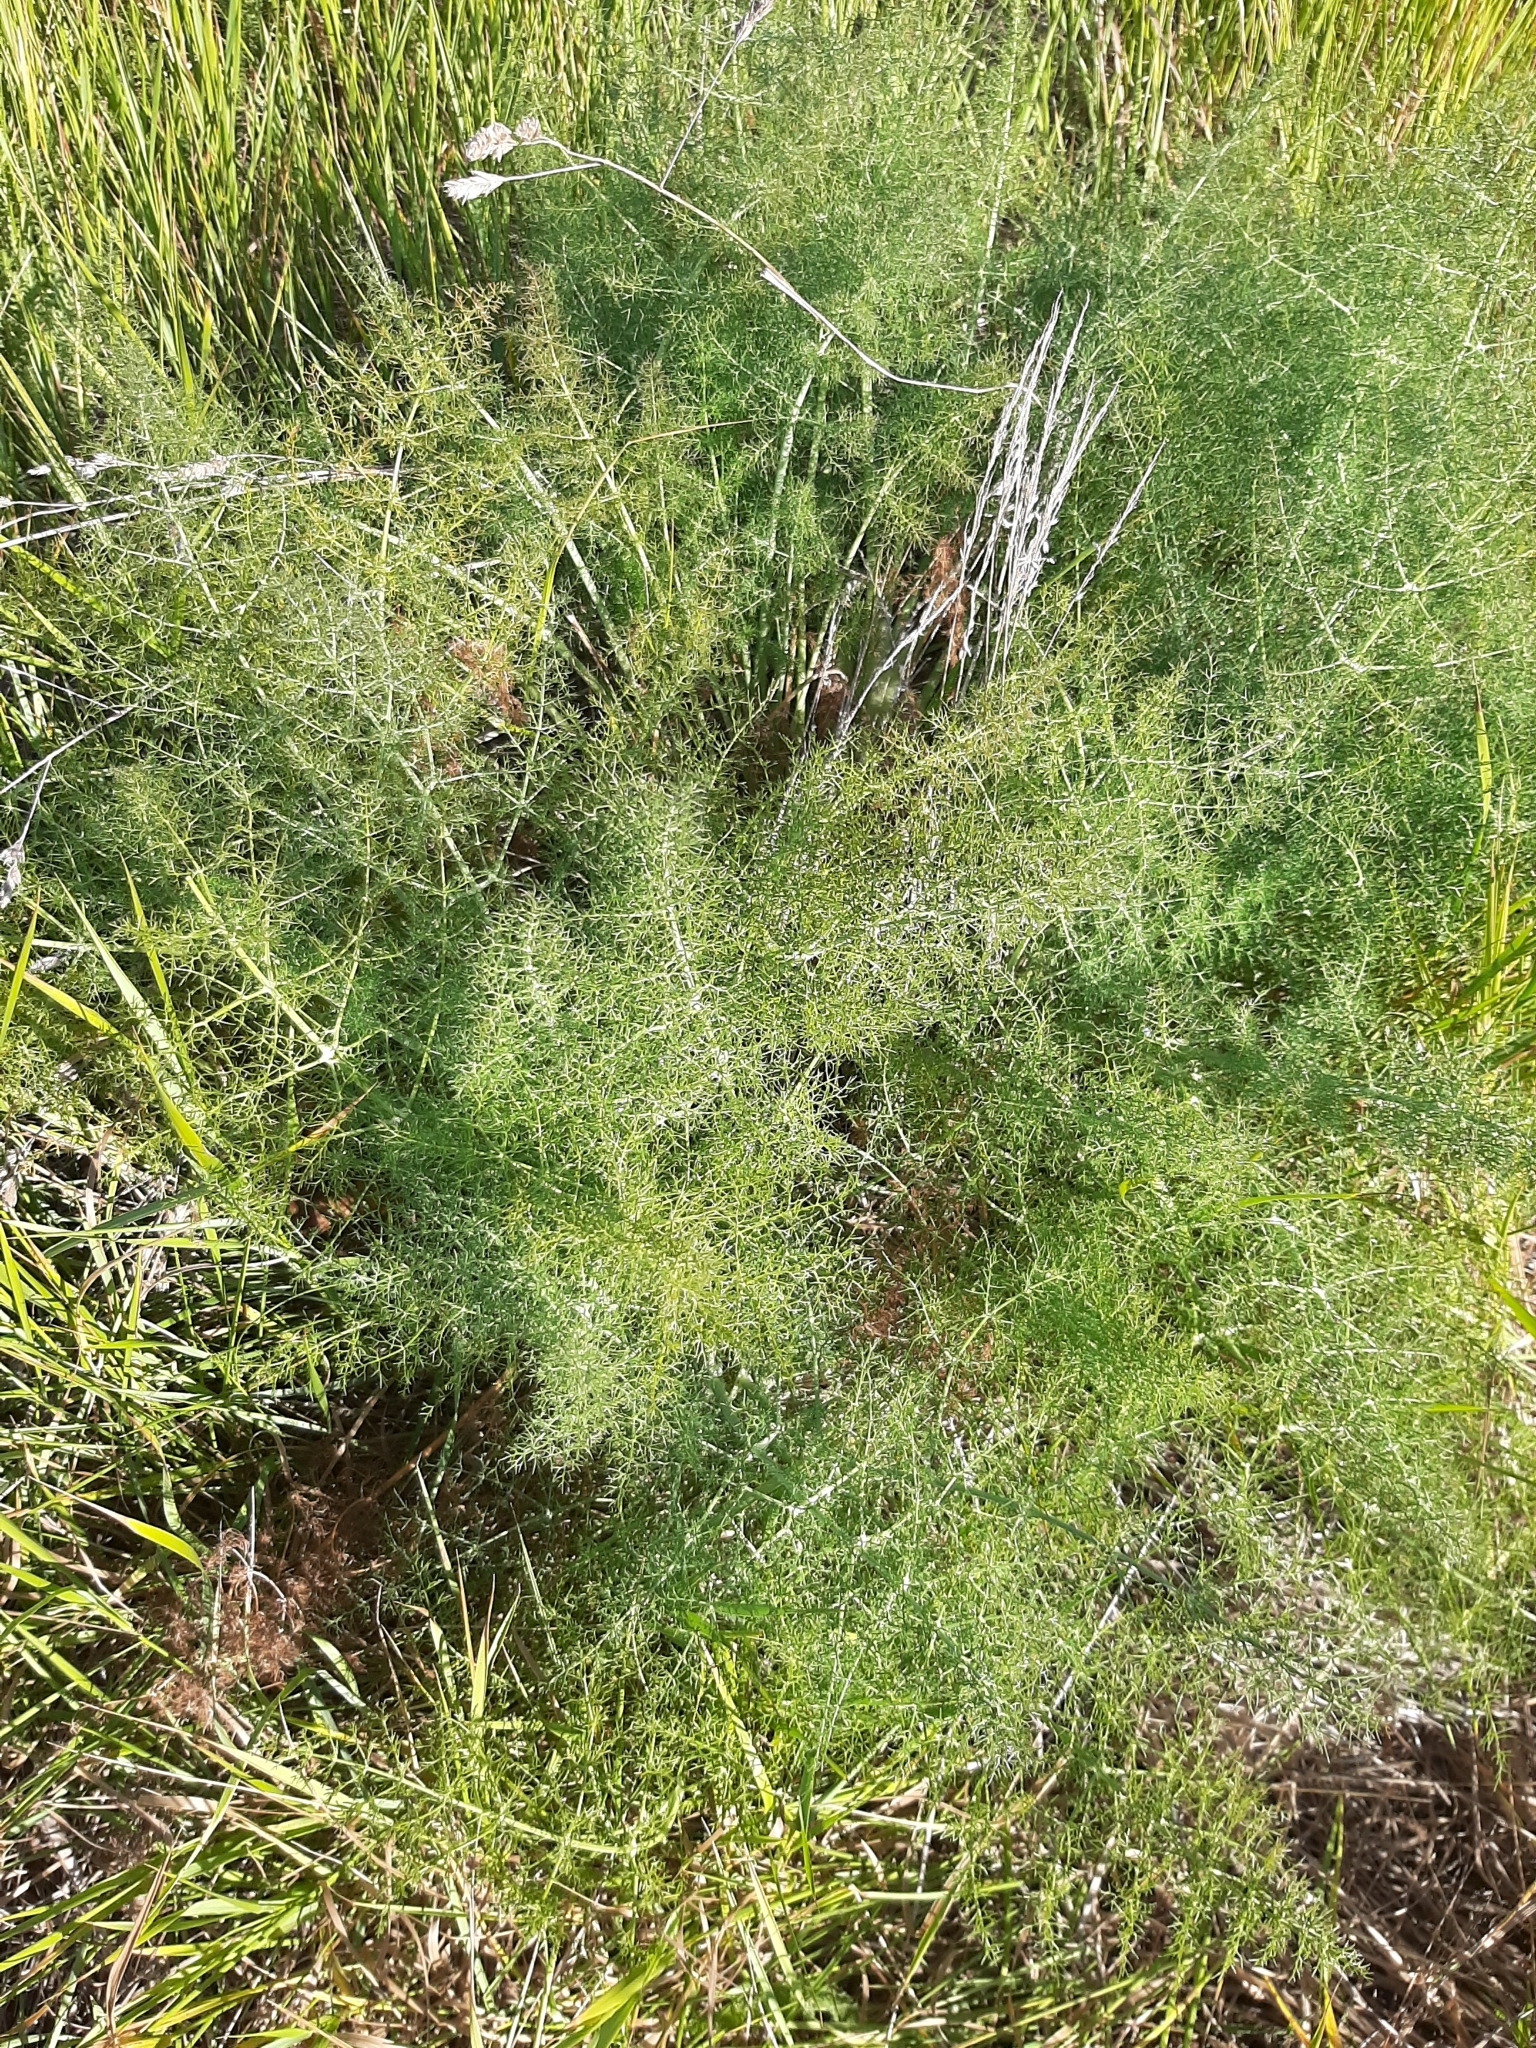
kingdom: Plantae
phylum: Tracheophyta
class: Magnoliopsida
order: Apiales
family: Apiaceae
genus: Foeniculum
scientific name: Foeniculum vulgare
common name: Fennel
